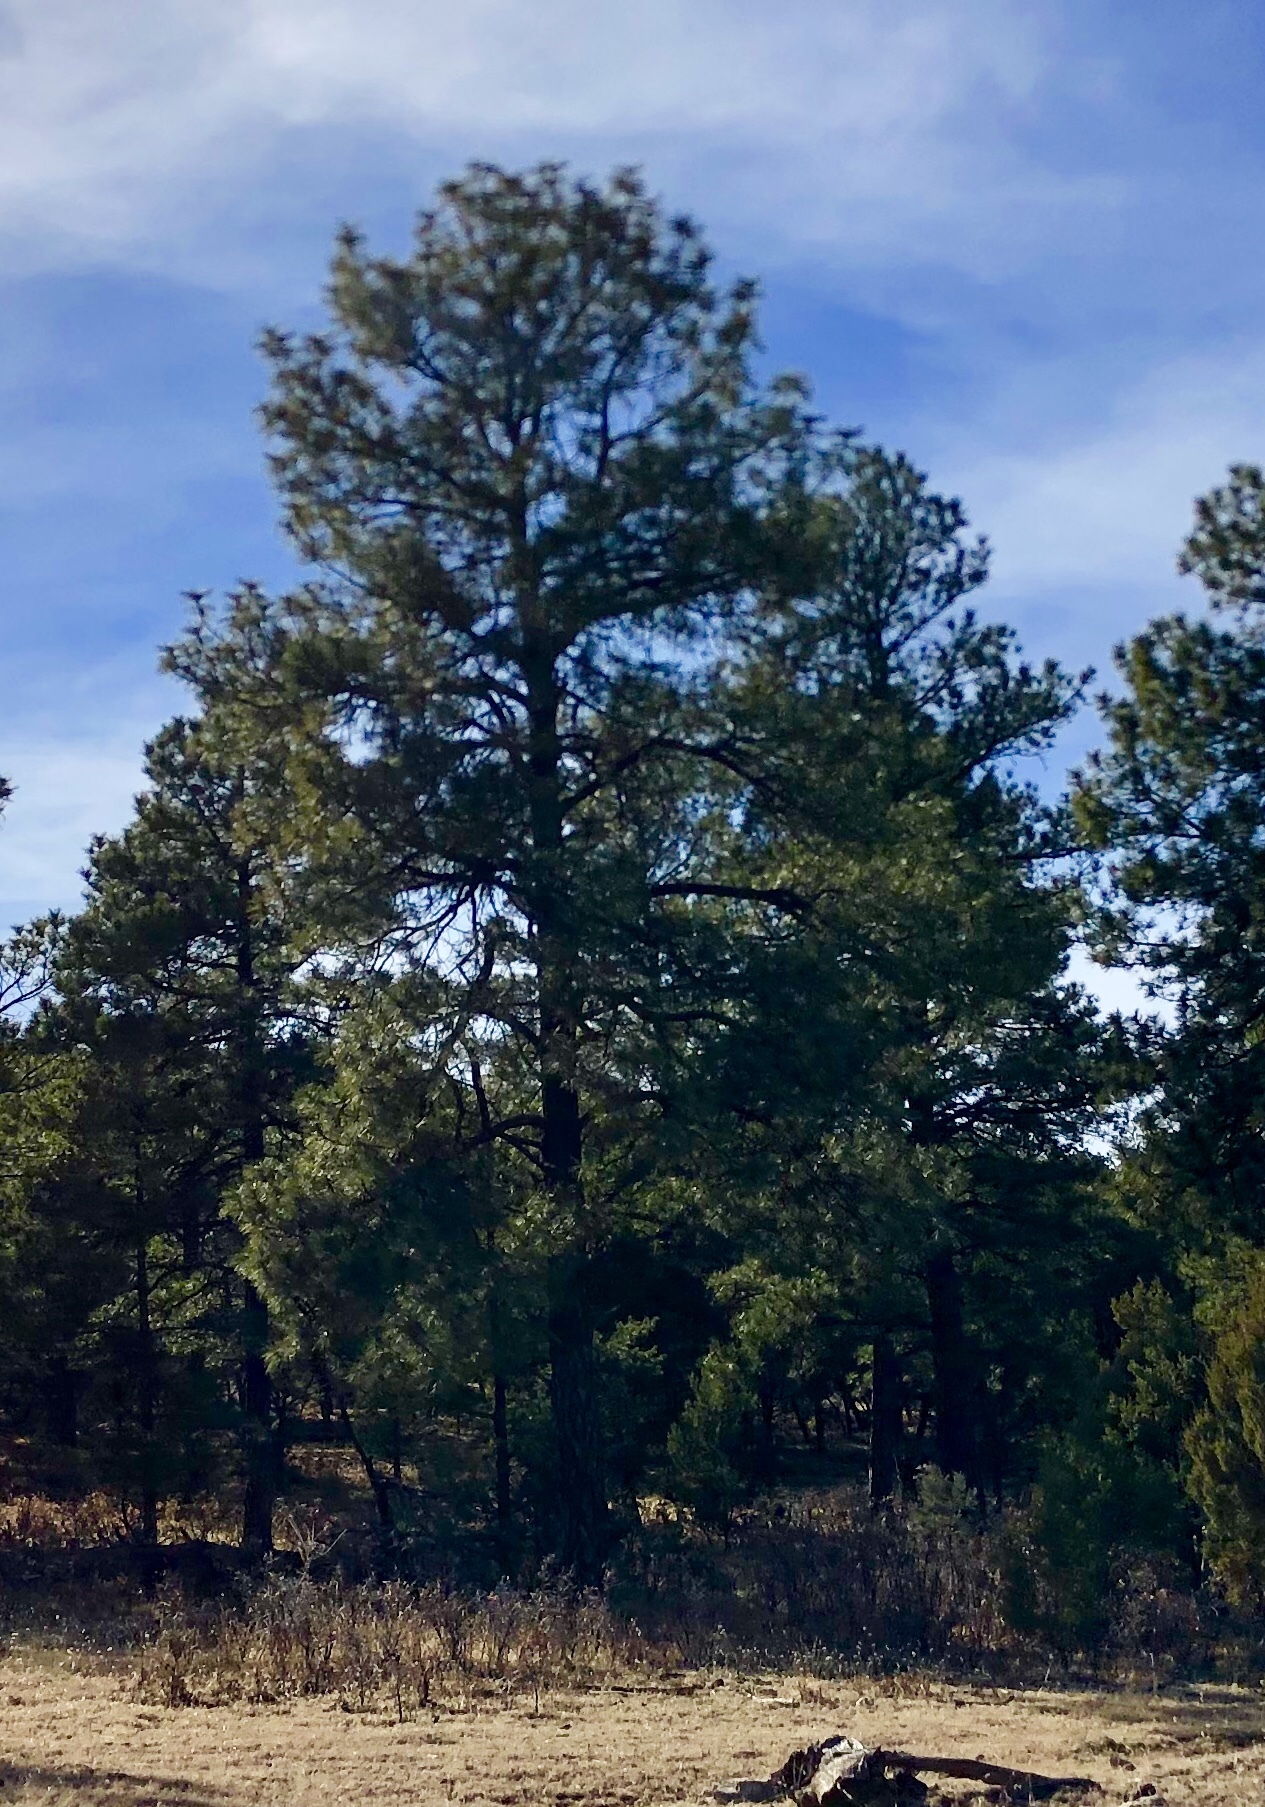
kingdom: Plantae
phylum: Tracheophyta
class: Pinopsida
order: Pinales
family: Pinaceae
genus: Pinus
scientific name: Pinus ponderosa
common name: Western yellow-pine
